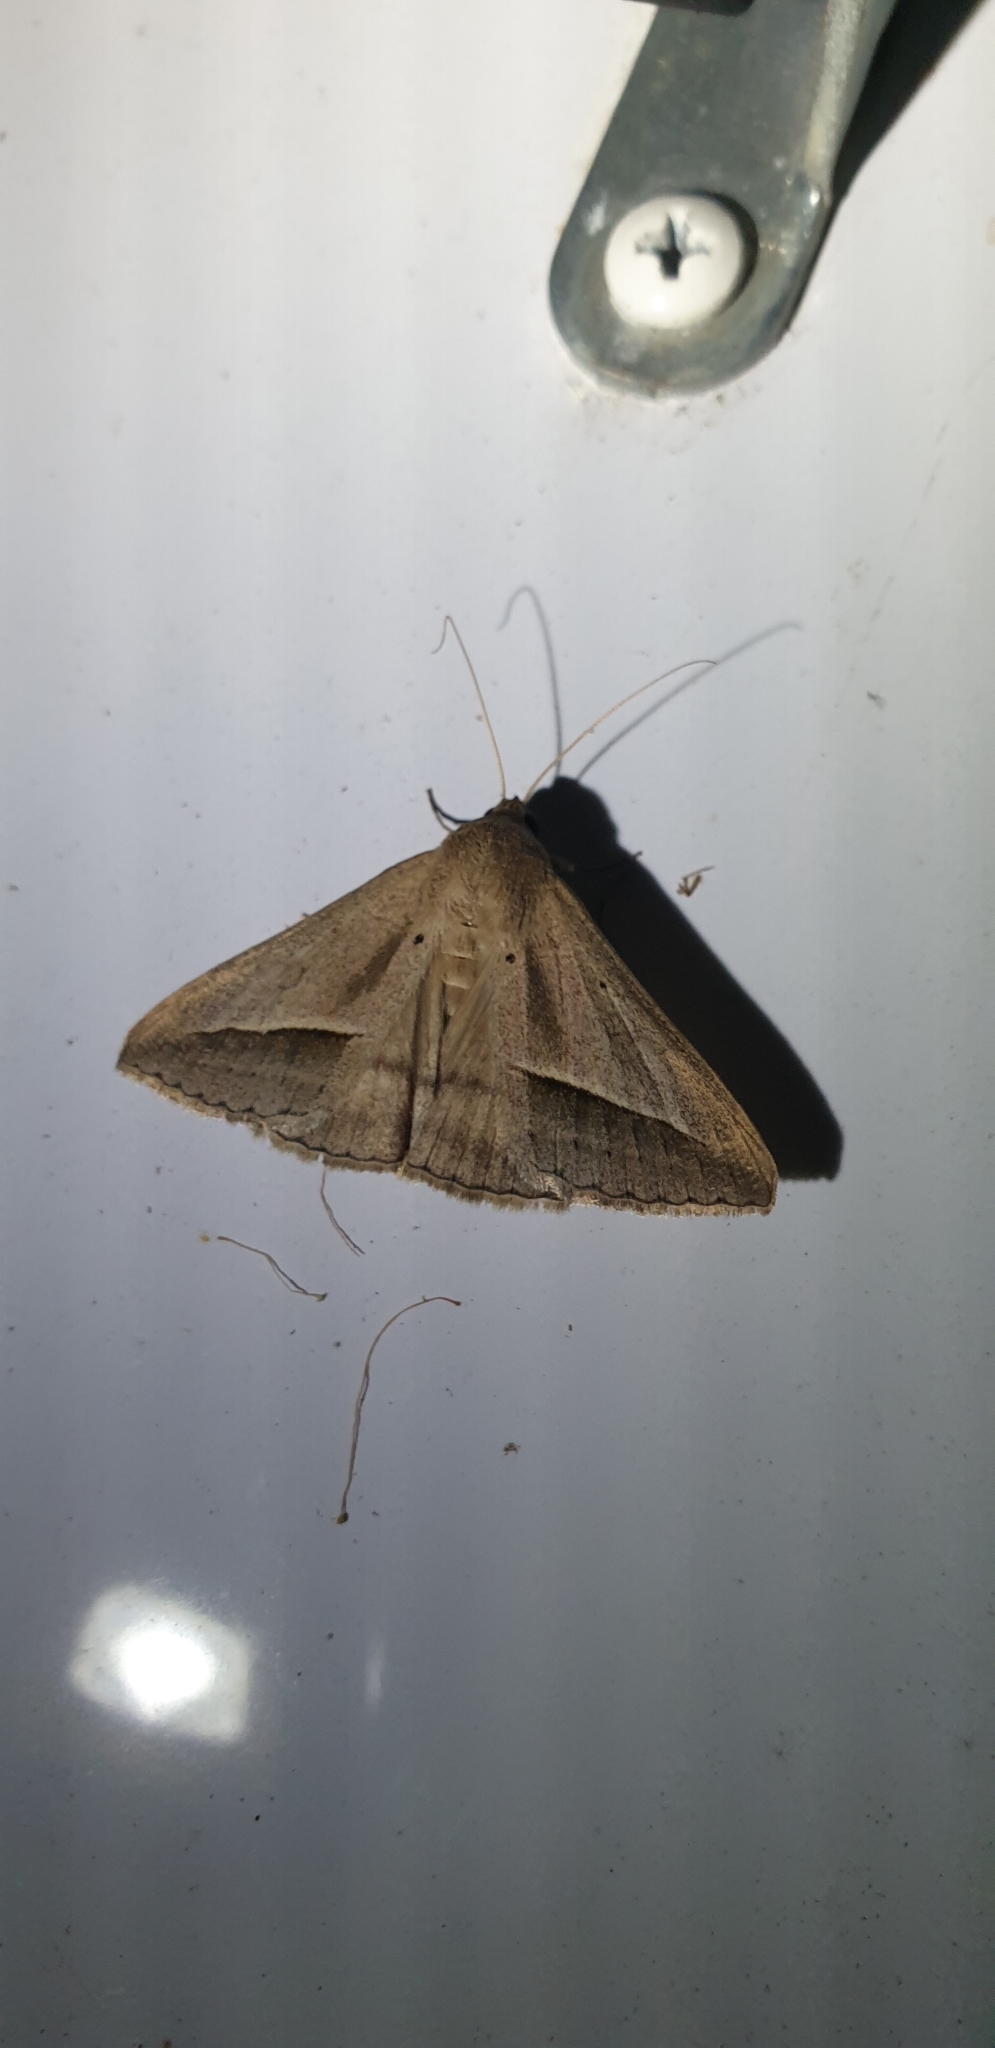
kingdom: Animalia
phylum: Arthropoda
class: Insecta
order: Lepidoptera
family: Erebidae
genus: Mocis
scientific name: Mocis frugalis
